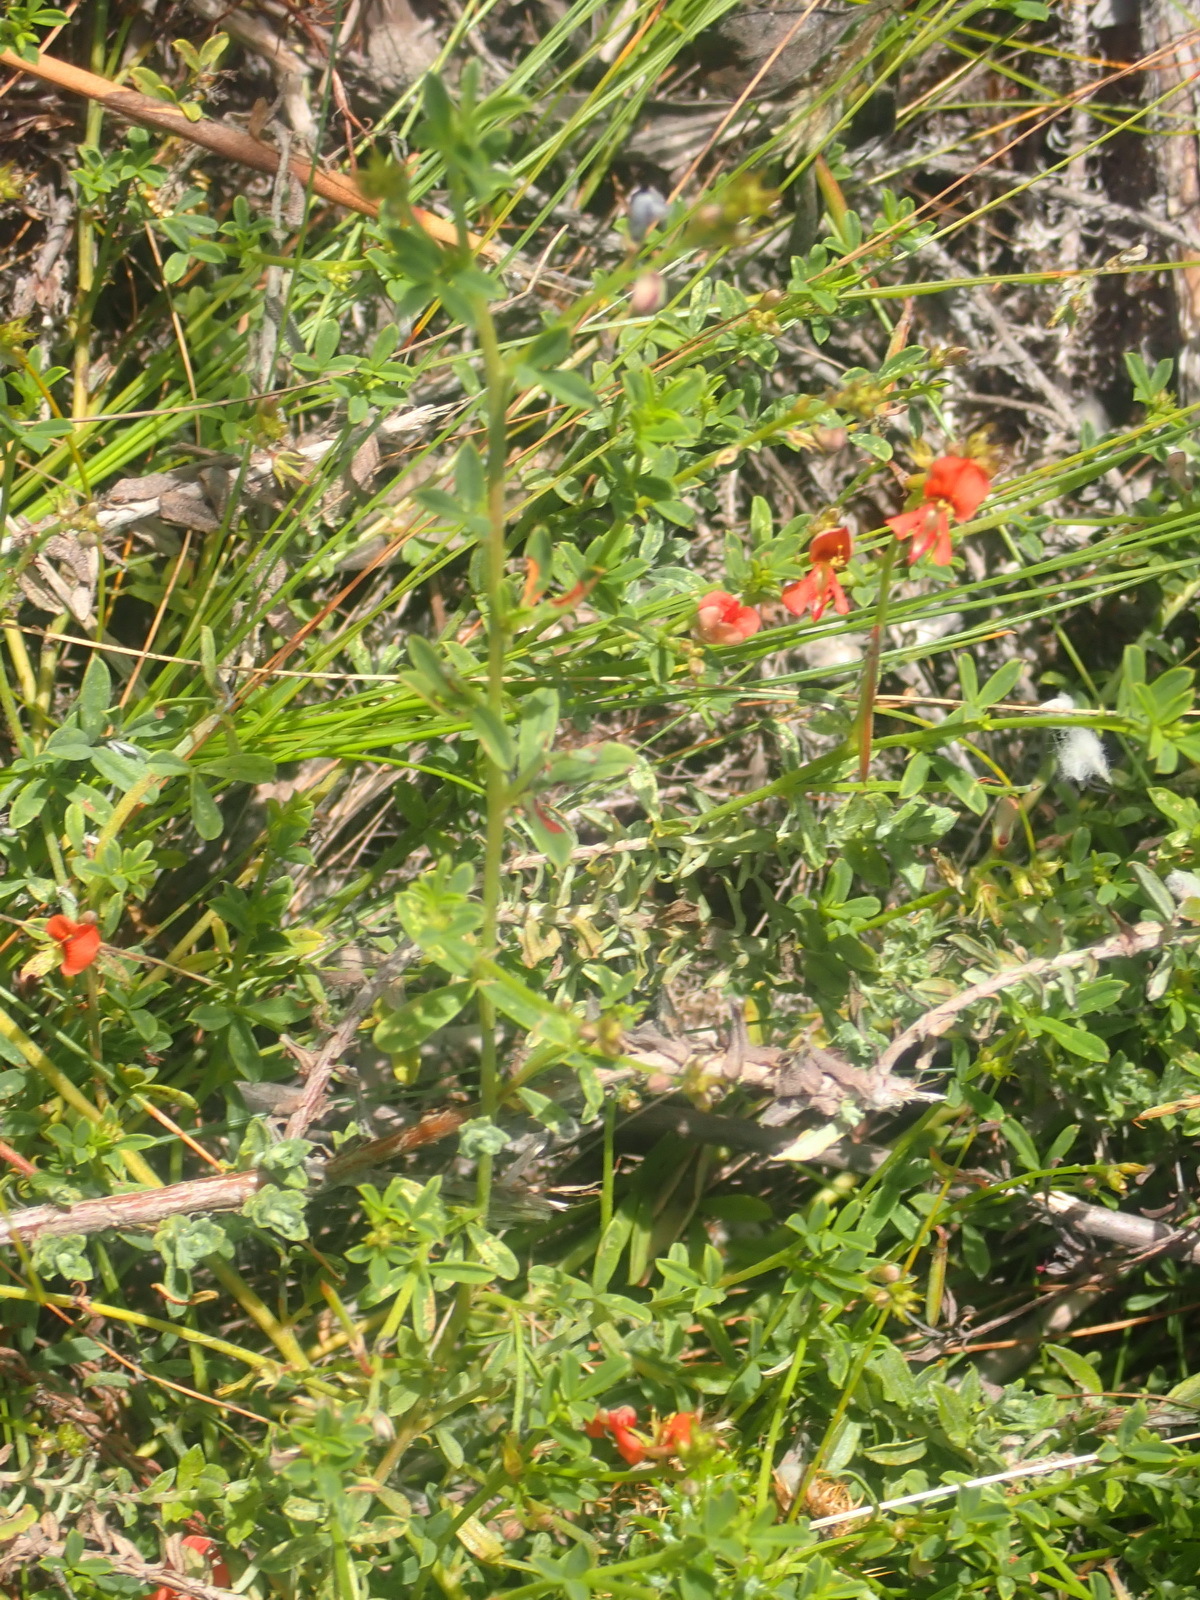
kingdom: Plantae
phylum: Tracheophyta
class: Magnoliopsida
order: Fabales
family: Fabaceae
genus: Indigofera
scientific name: Indigofera priorii
